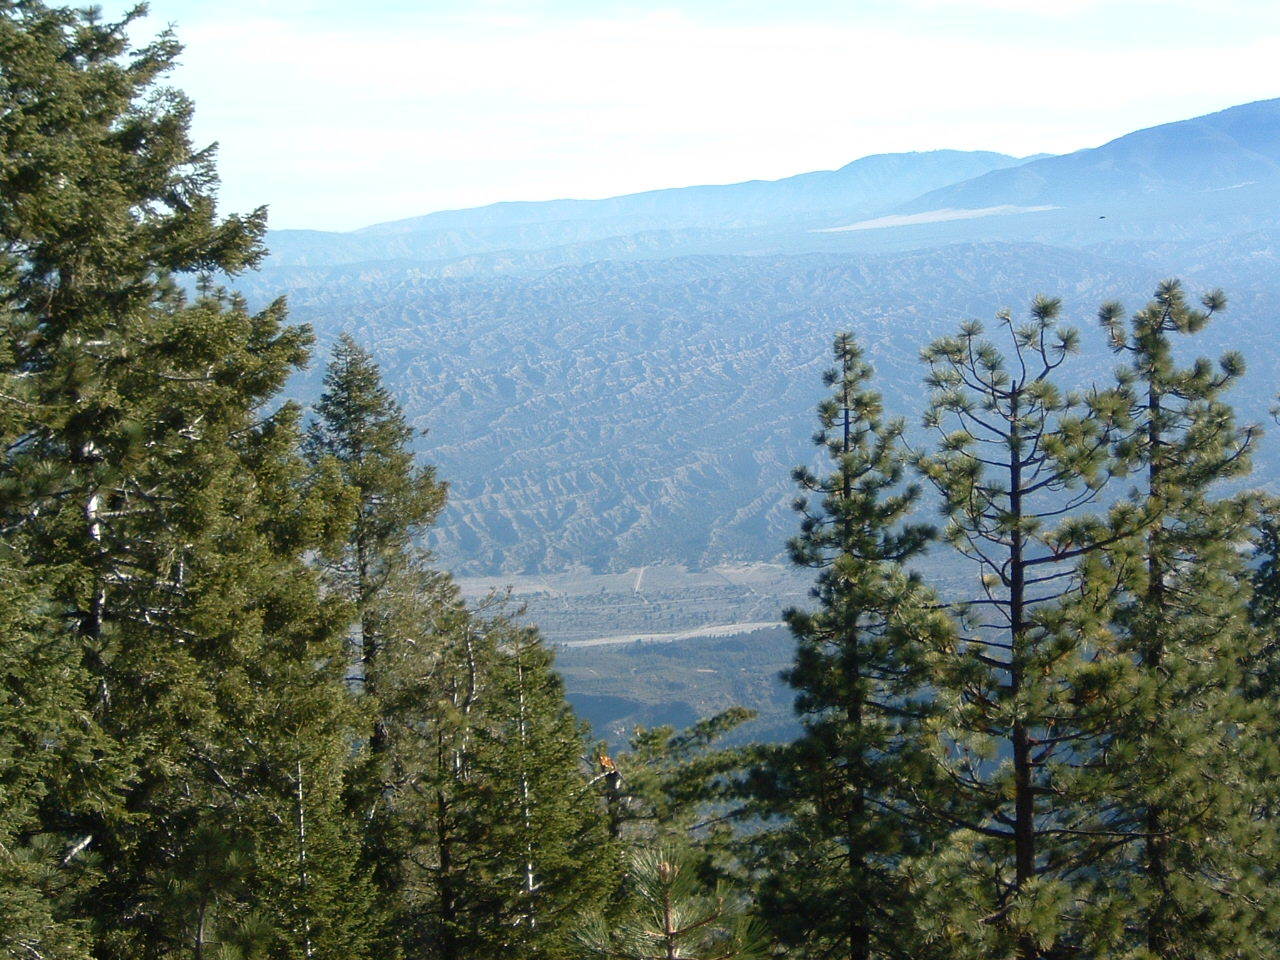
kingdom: Plantae
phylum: Tracheophyta
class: Pinopsida
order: Pinales
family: Pinaceae
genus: Pinus
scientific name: Pinus jeffreyi
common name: Jeffrey pine
